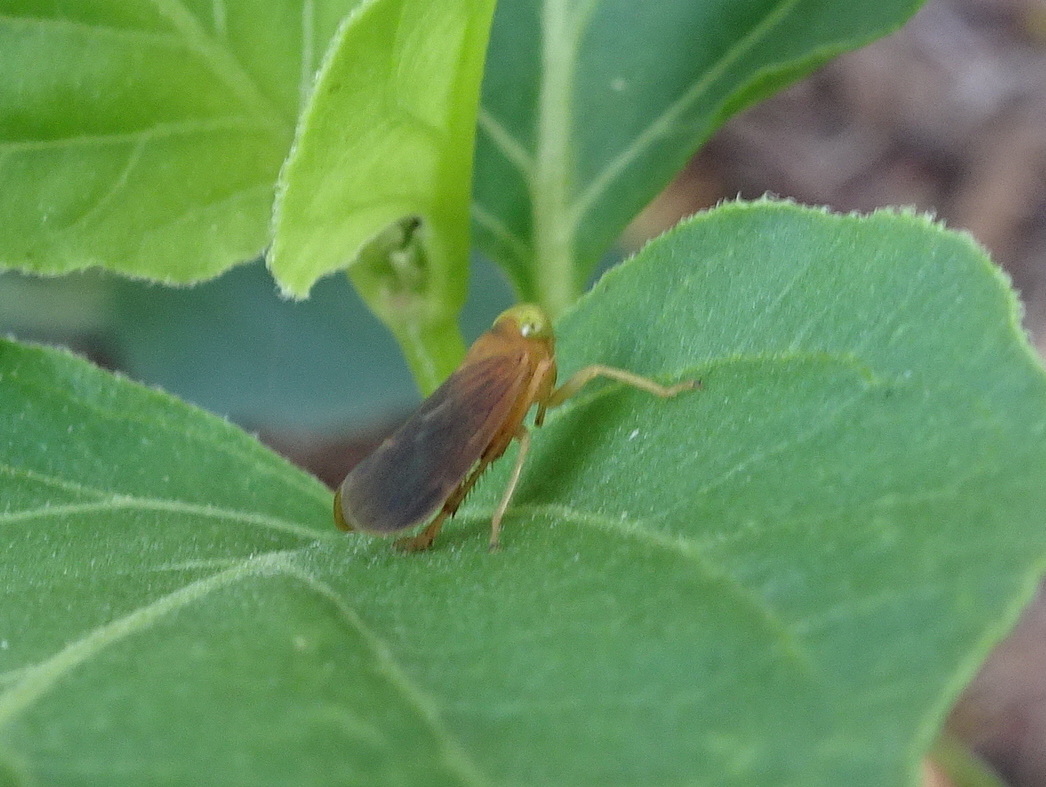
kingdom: Animalia
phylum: Arthropoda
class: Insecta
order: Hemiptera
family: Cicadellidae
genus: Jikradia
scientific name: Jikradia olitoria
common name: Coppery leafhopper
